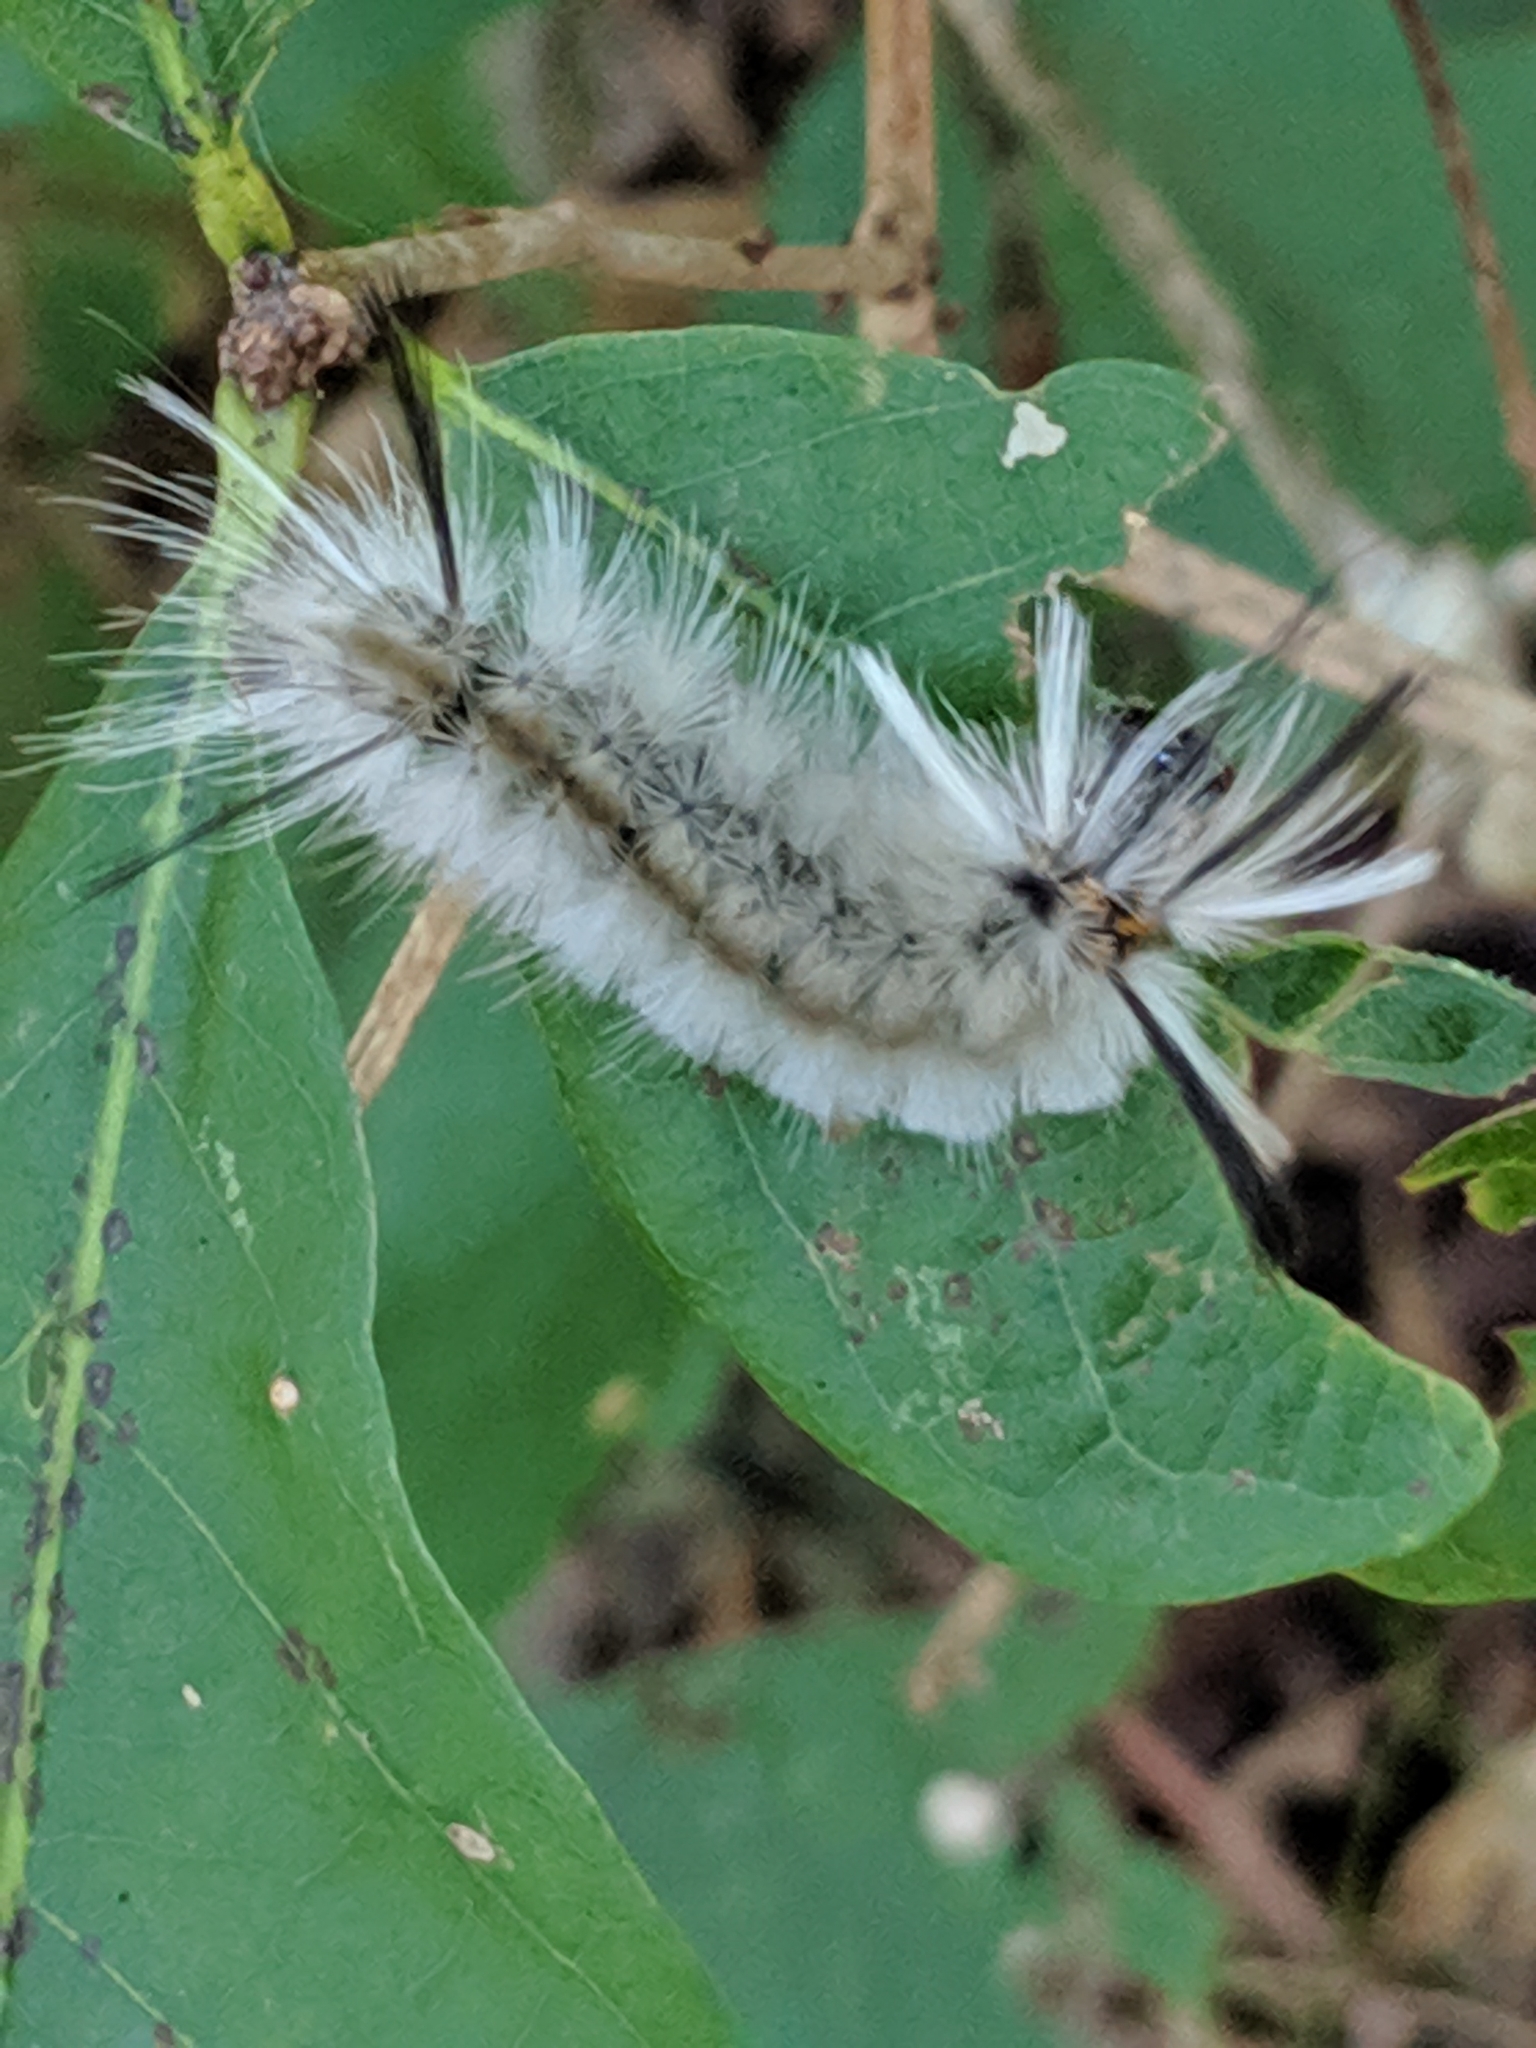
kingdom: Animalia
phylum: Arthropoda
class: Insecta
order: Lepidoptera
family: Erebidae
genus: Halysidota
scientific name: Halysidota tessellaris
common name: Banded tussock moth
